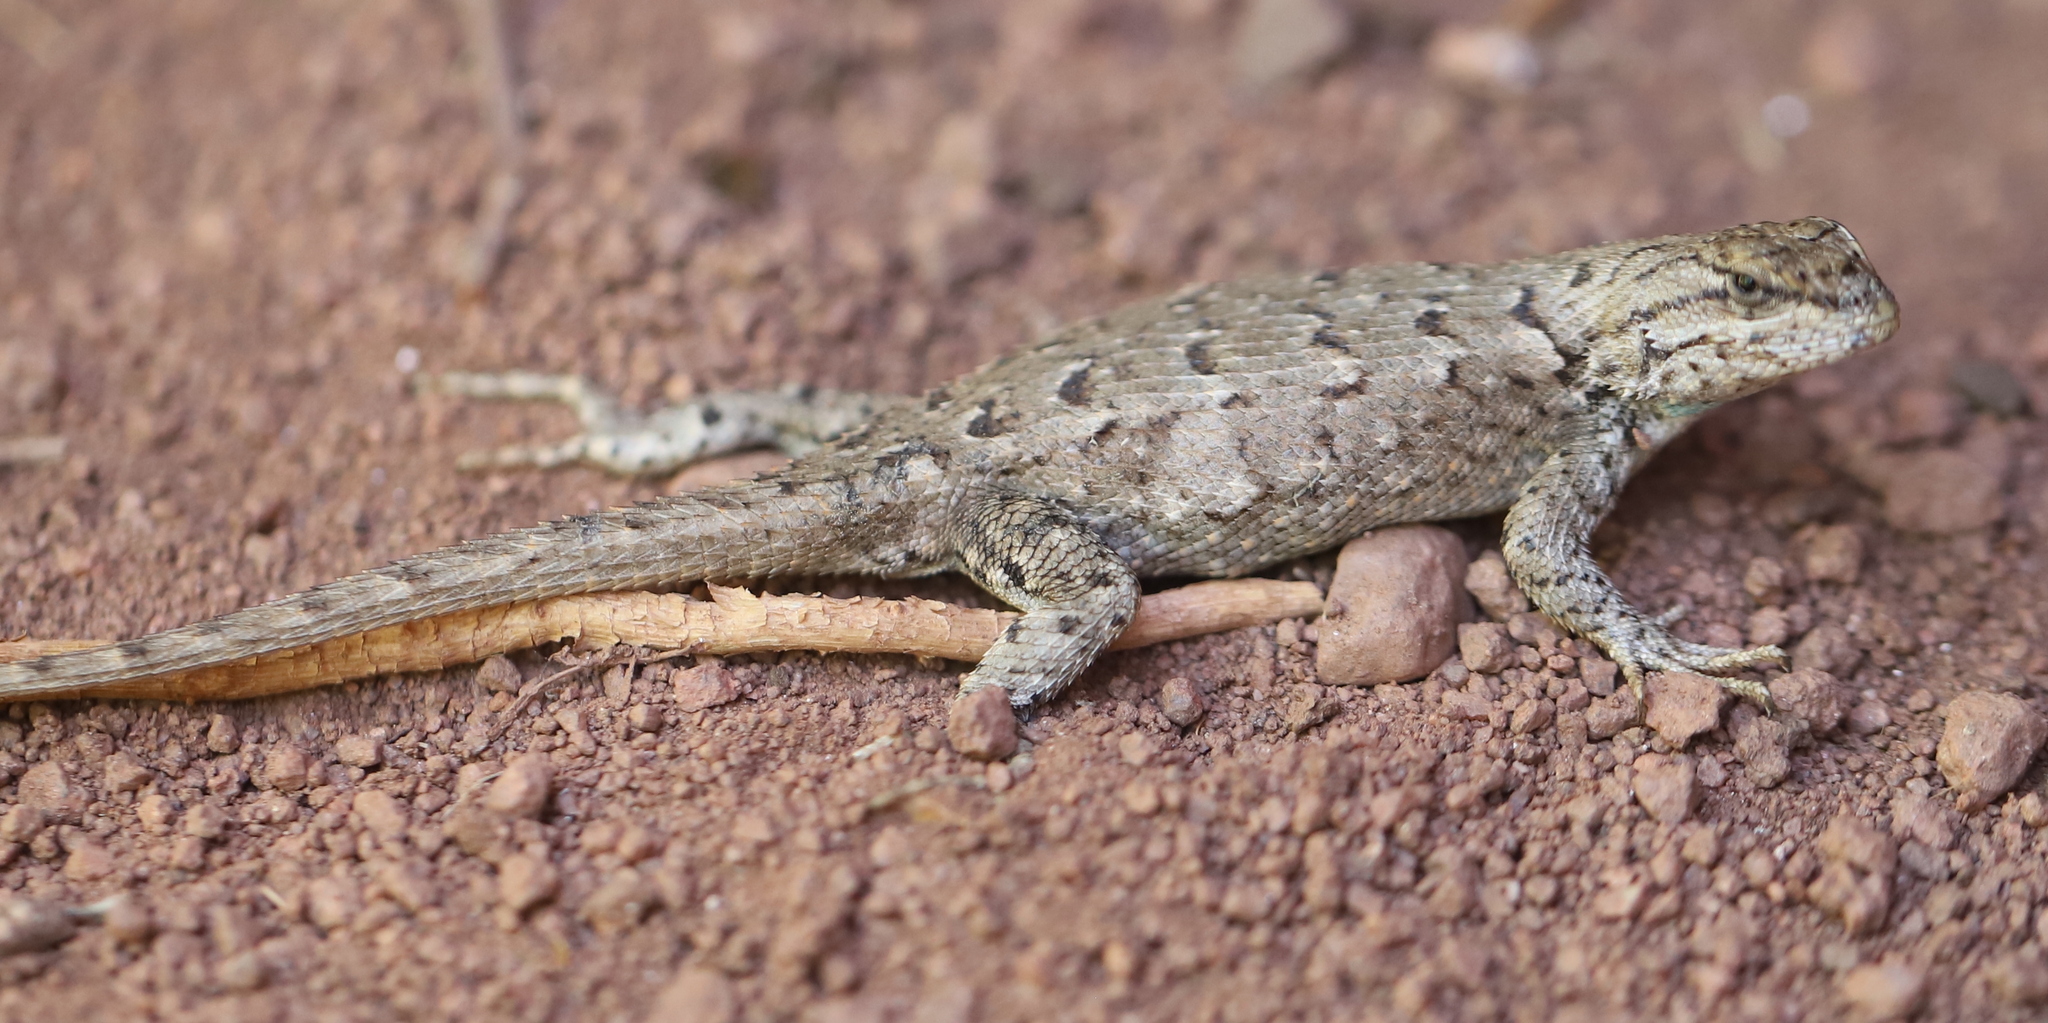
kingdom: Animalia
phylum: Chordata
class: Squamata
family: Phrynosomatidae
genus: Sceloporus
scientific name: Sceloporus consobrinus
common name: Southern prairie lizard
